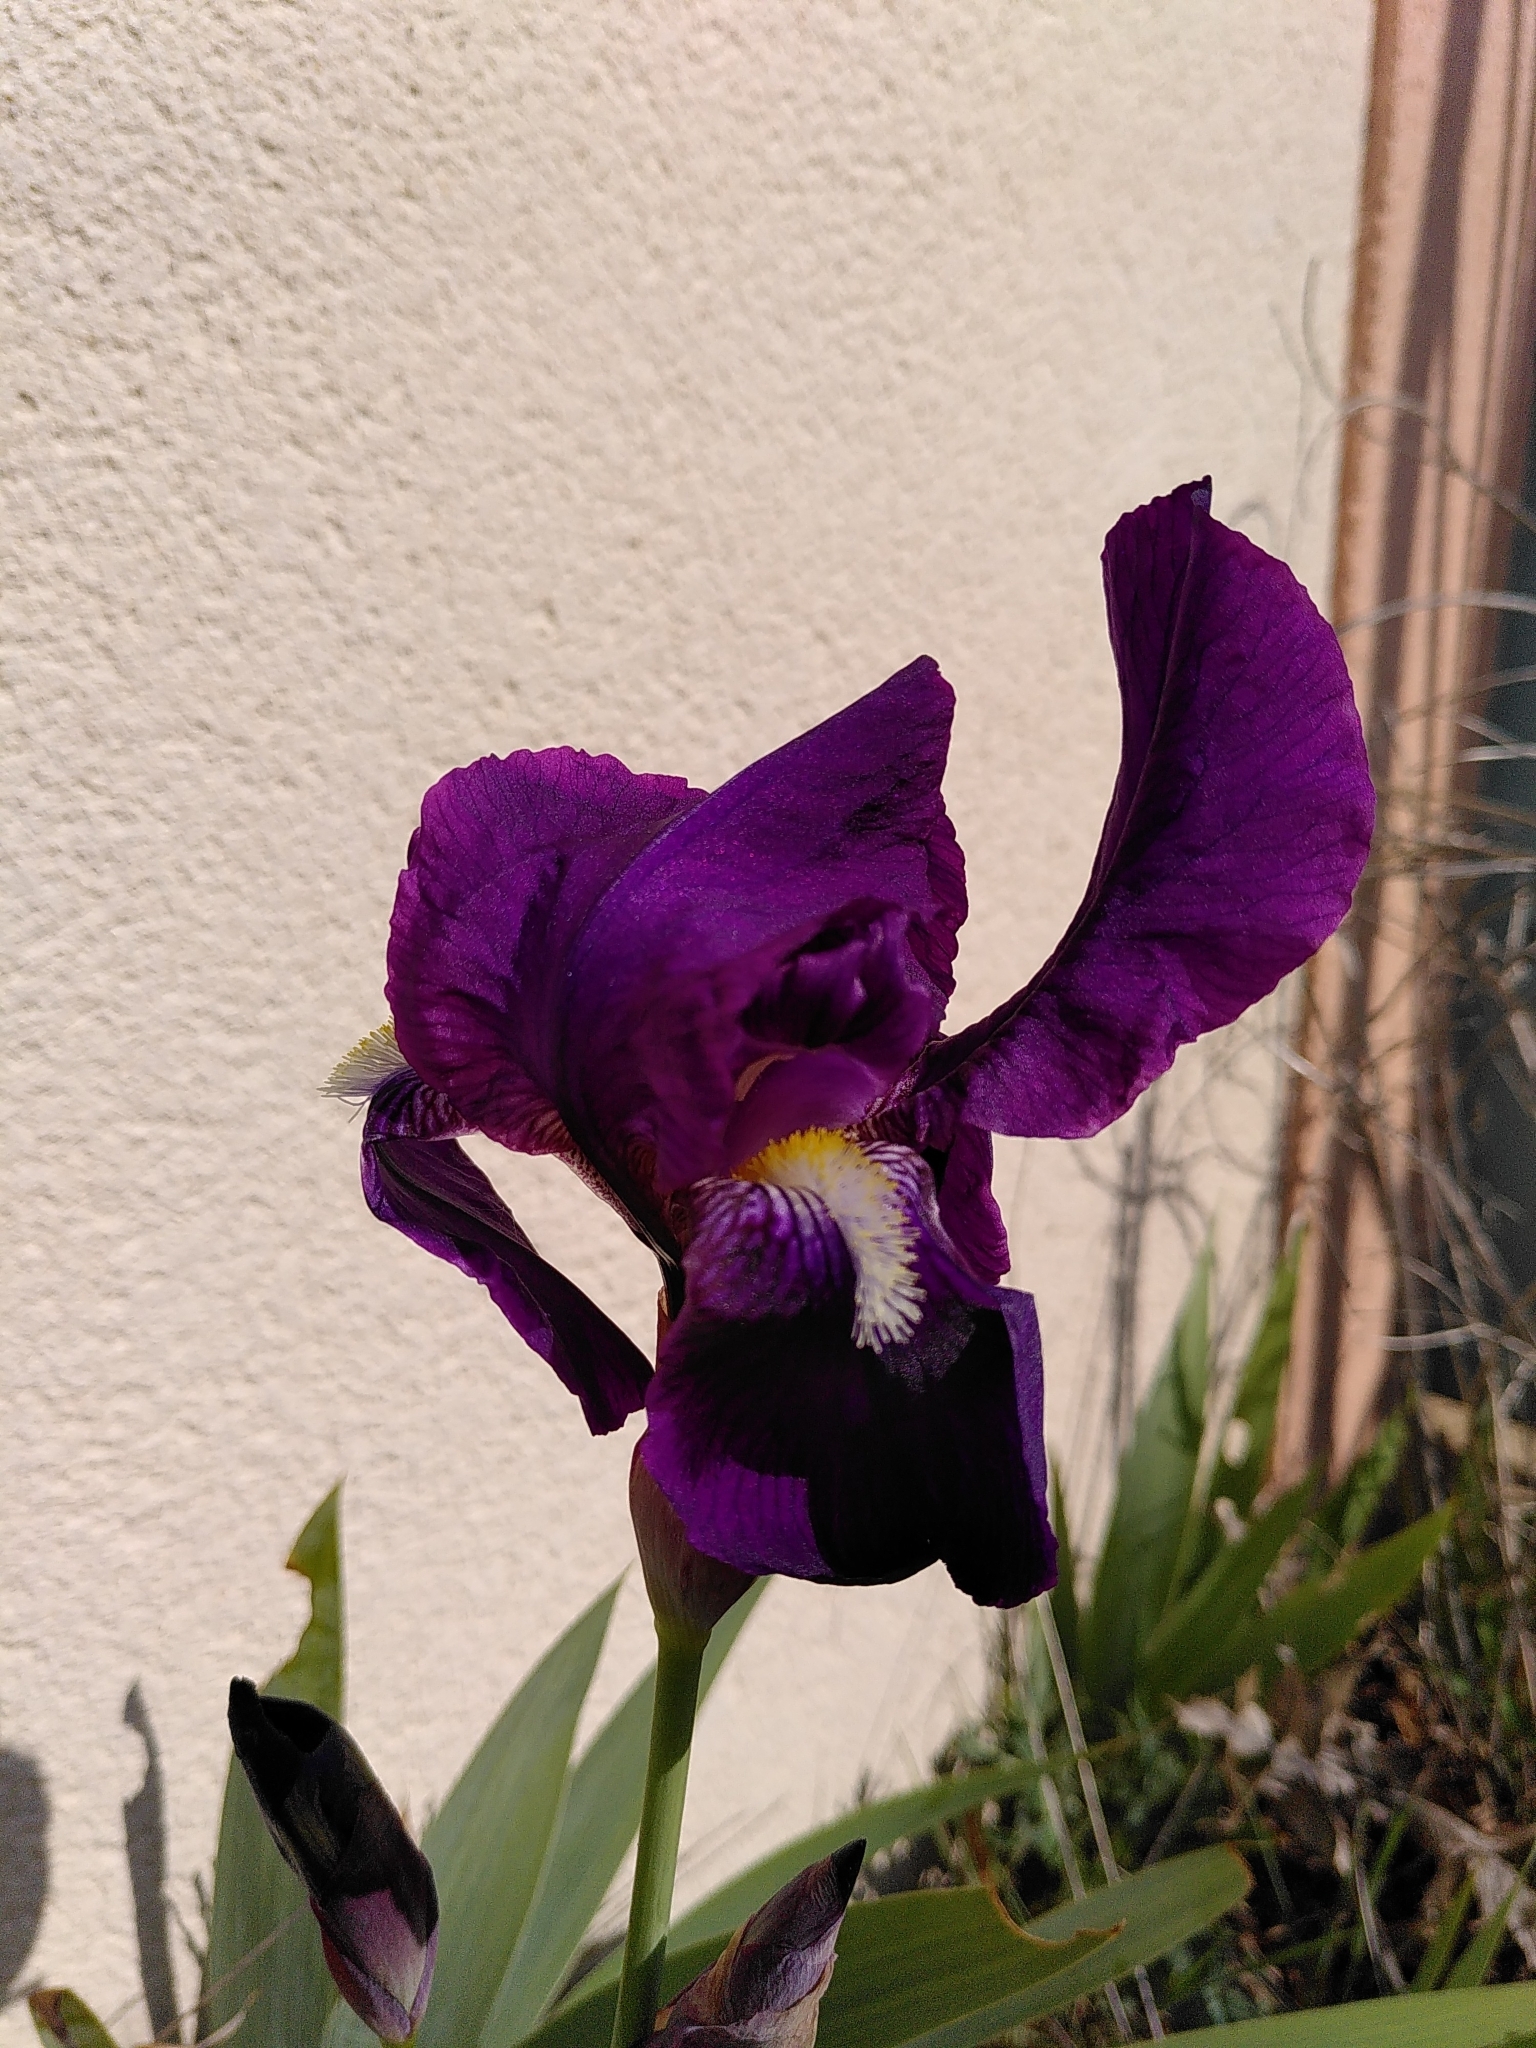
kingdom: Plantae
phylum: Tracheophyta
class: Liliopsida
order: Asparagales
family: Iridaceae
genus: Iris
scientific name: Iris germanica
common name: German iris
